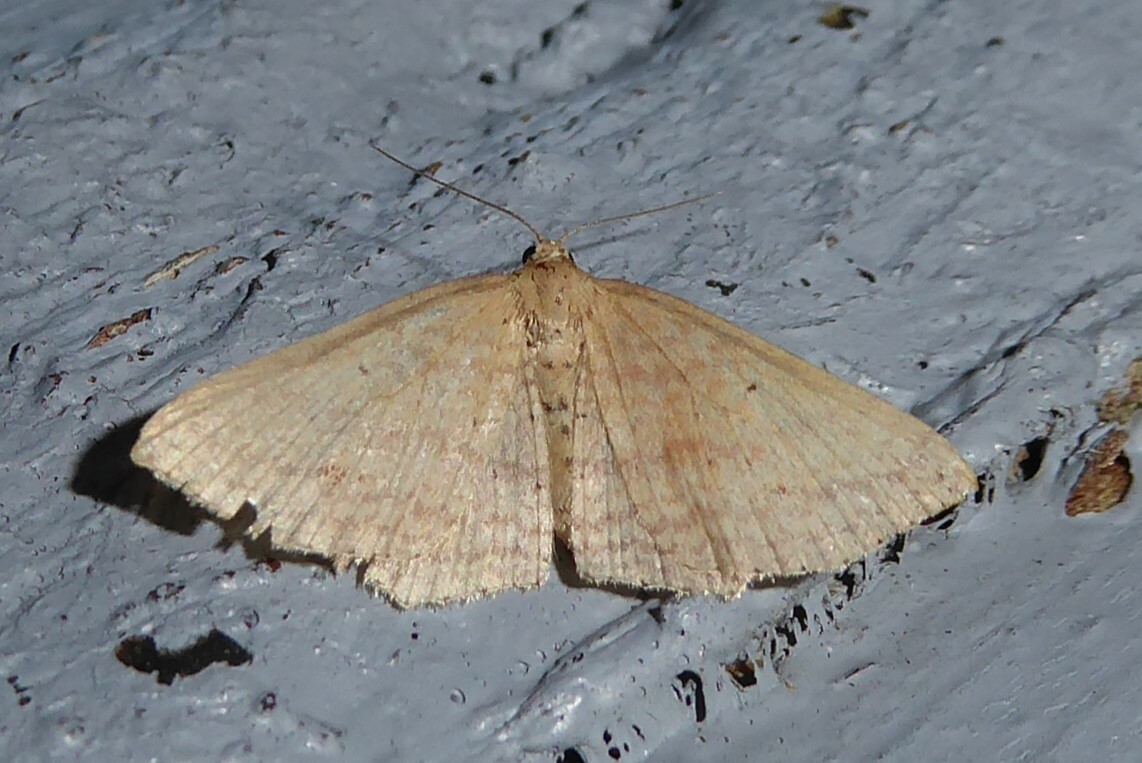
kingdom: Animalia
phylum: Arthropoda
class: Insecta
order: Lepidoptera
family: Geometridae
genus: Epicyme
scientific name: Epicyme rubropunctaria
